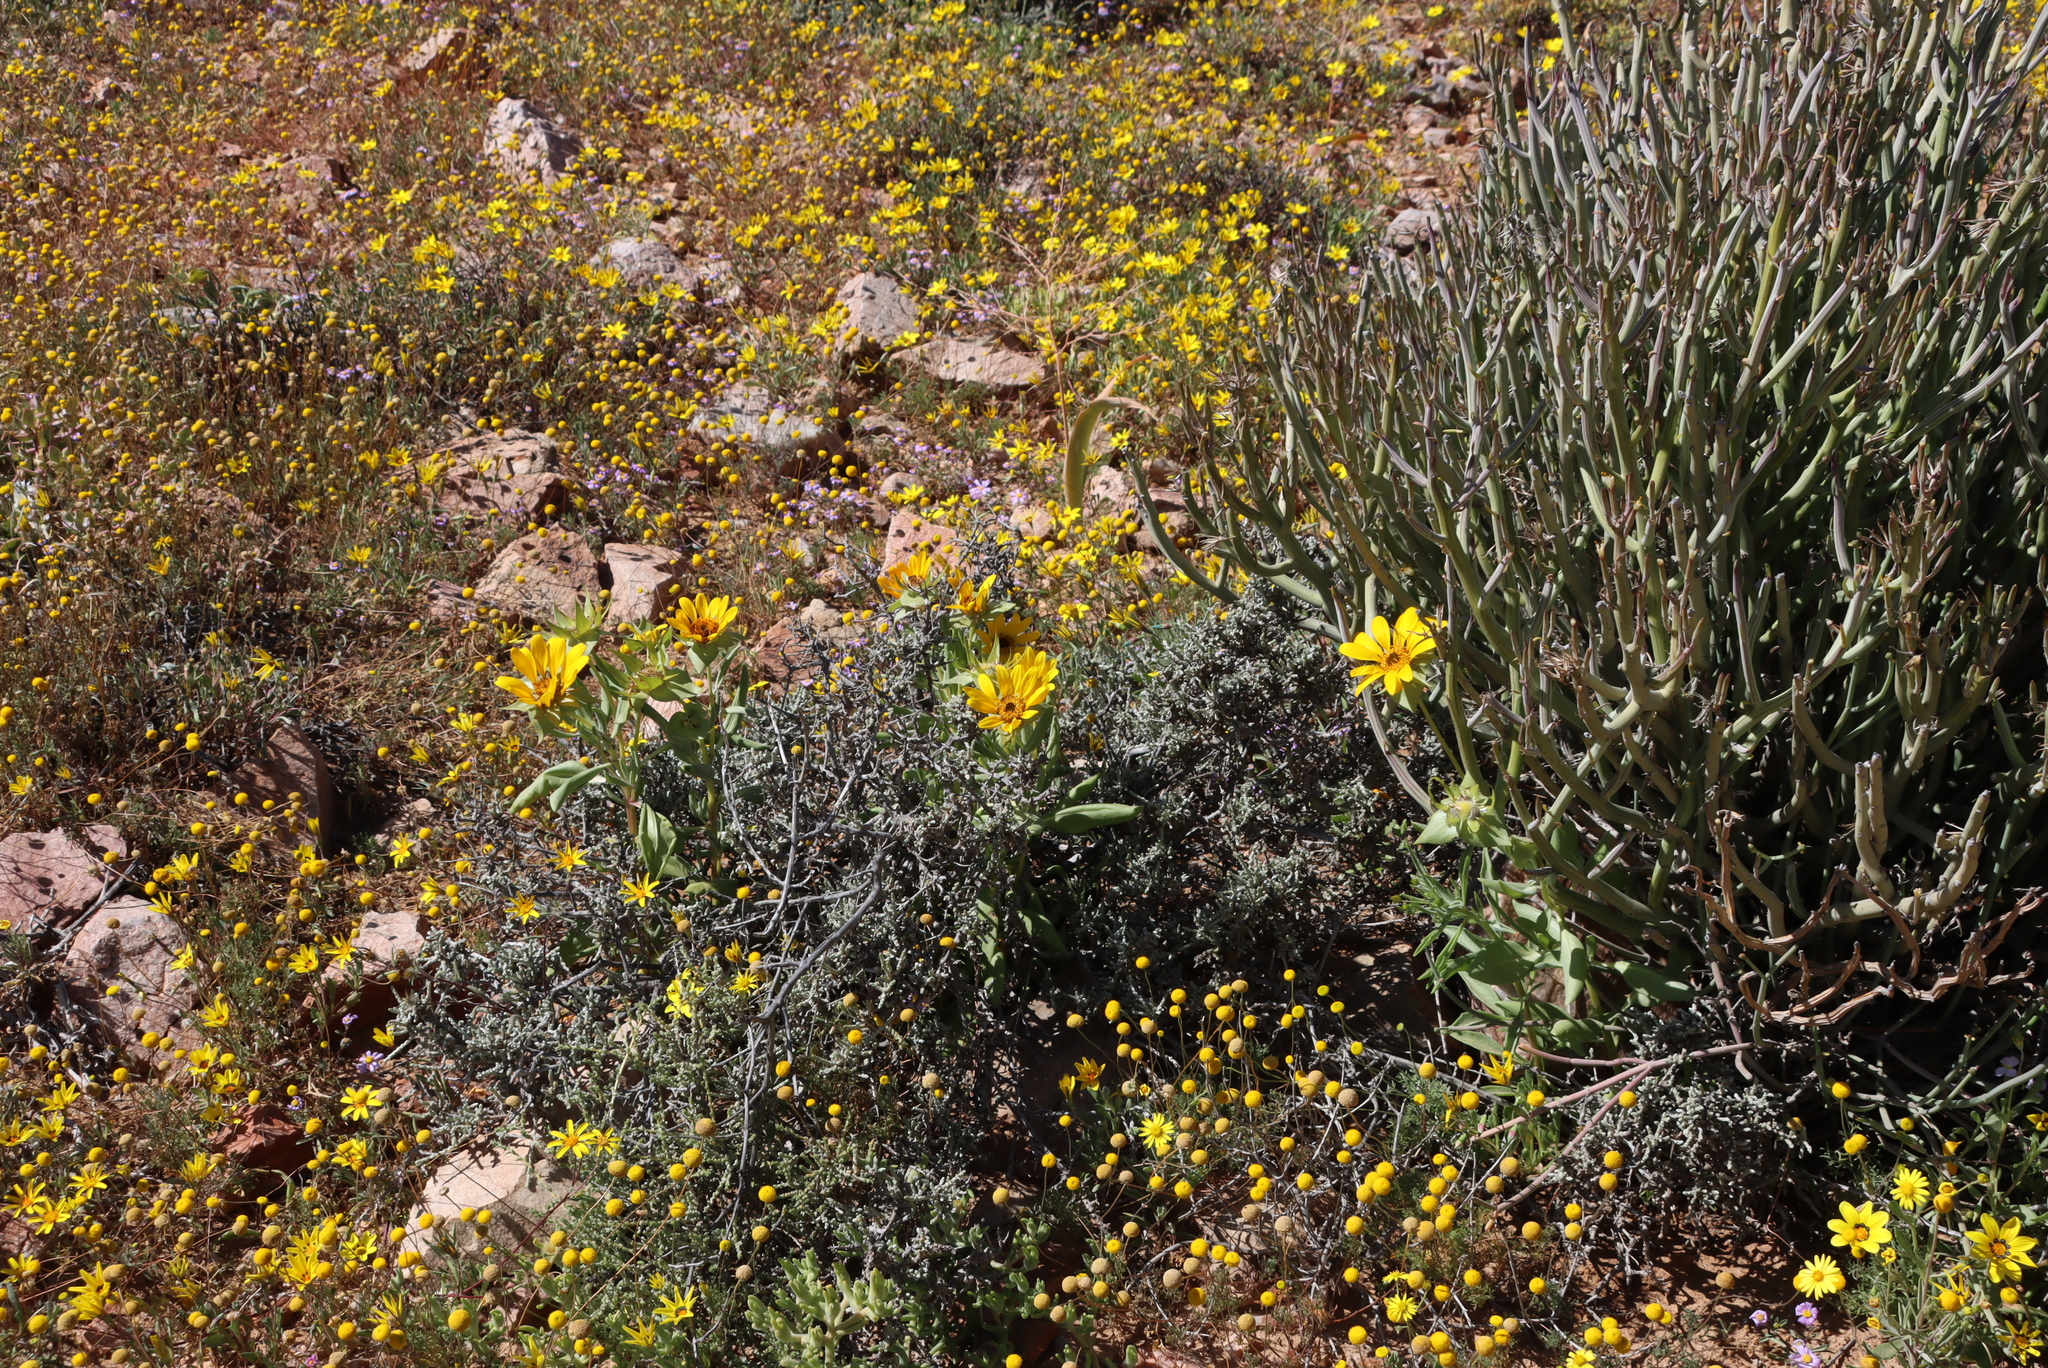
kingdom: Plantae
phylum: Tracheophyta
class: Magnoliopsida
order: Asterales
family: Asteraceae
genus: Curio
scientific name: Curio avasimontanus
